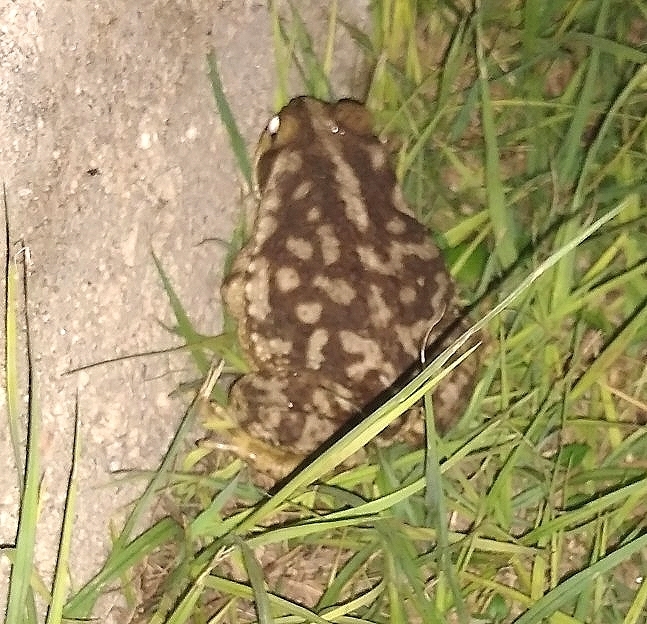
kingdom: Animalia
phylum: Chordata
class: Amphibia
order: Anura
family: Bufonidae
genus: Rhinella
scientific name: Rhinella arenarum
